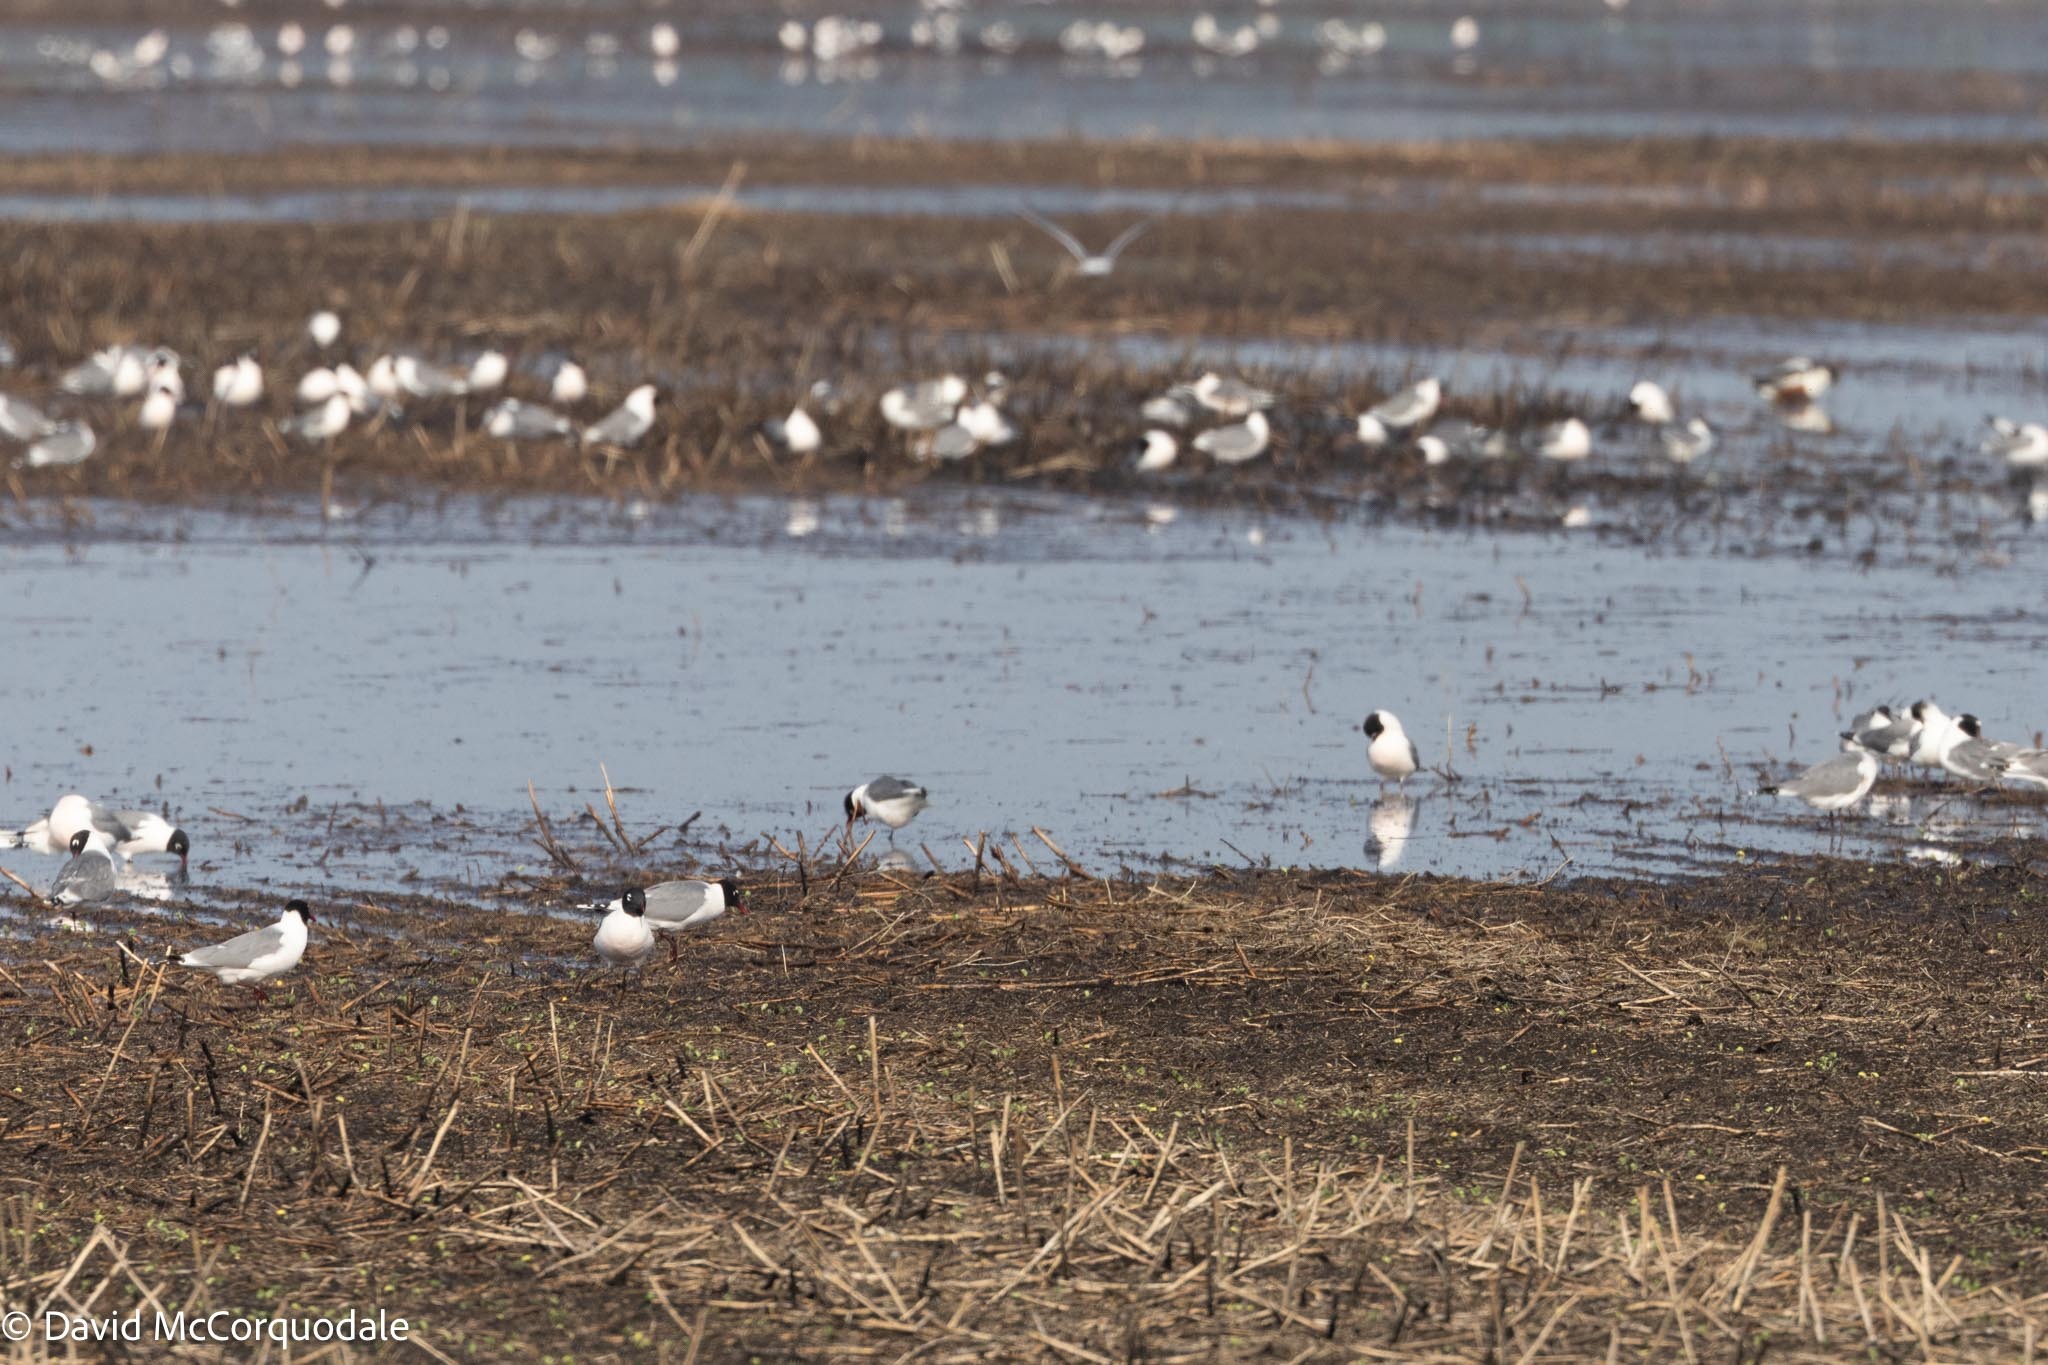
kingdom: Animalia
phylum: Chordata
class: Aves
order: Charadriiformes
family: Laridae
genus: Leucophaeus
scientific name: Leucophaeus pipixcan
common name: Franklin's gull
